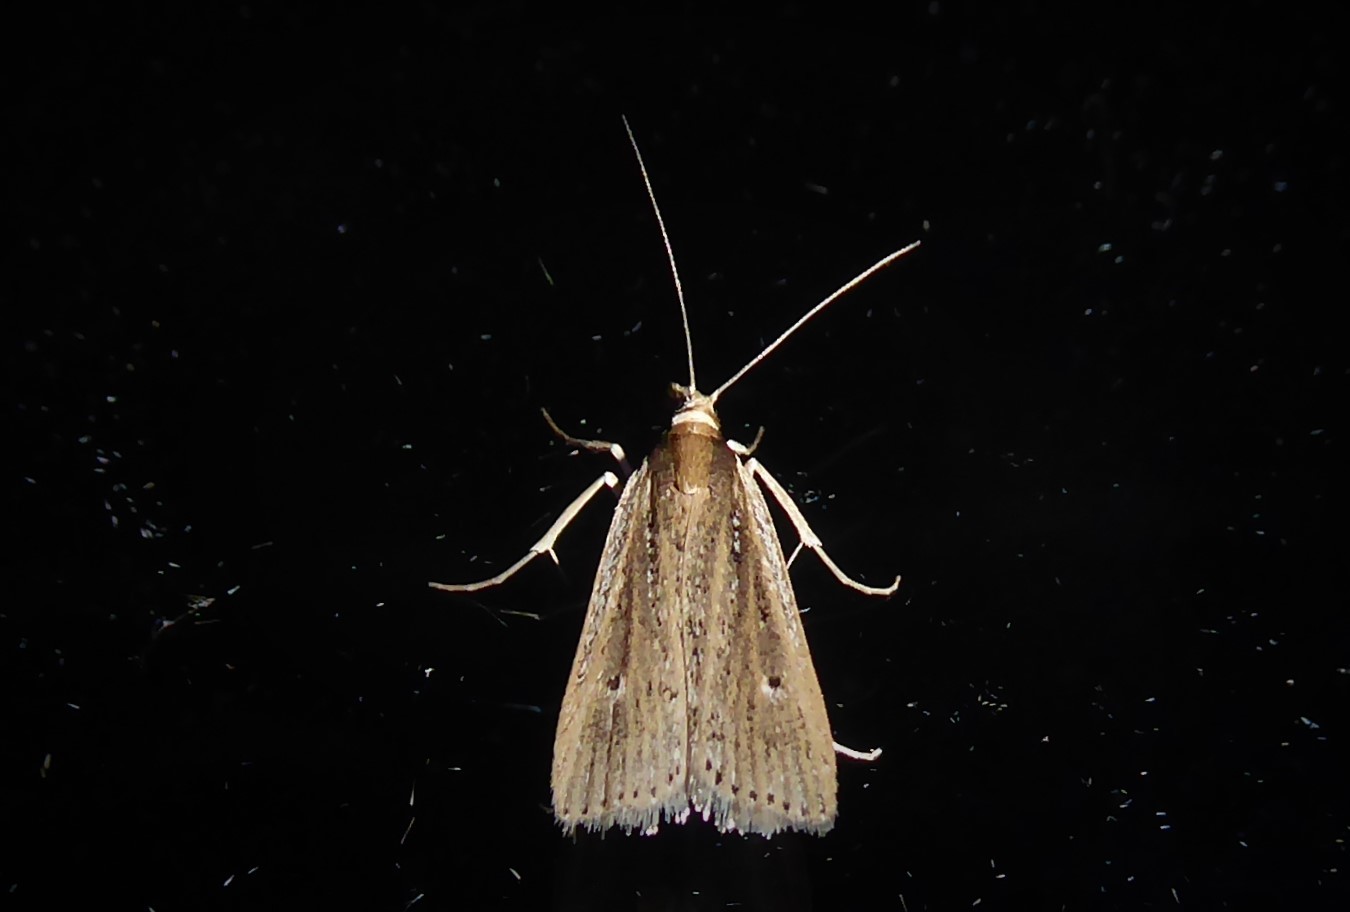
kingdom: Animalia
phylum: Arthropoda
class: Insecta
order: Lepidoptera
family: Crambidae
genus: Eudonia
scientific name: Eudonia sabulosella
